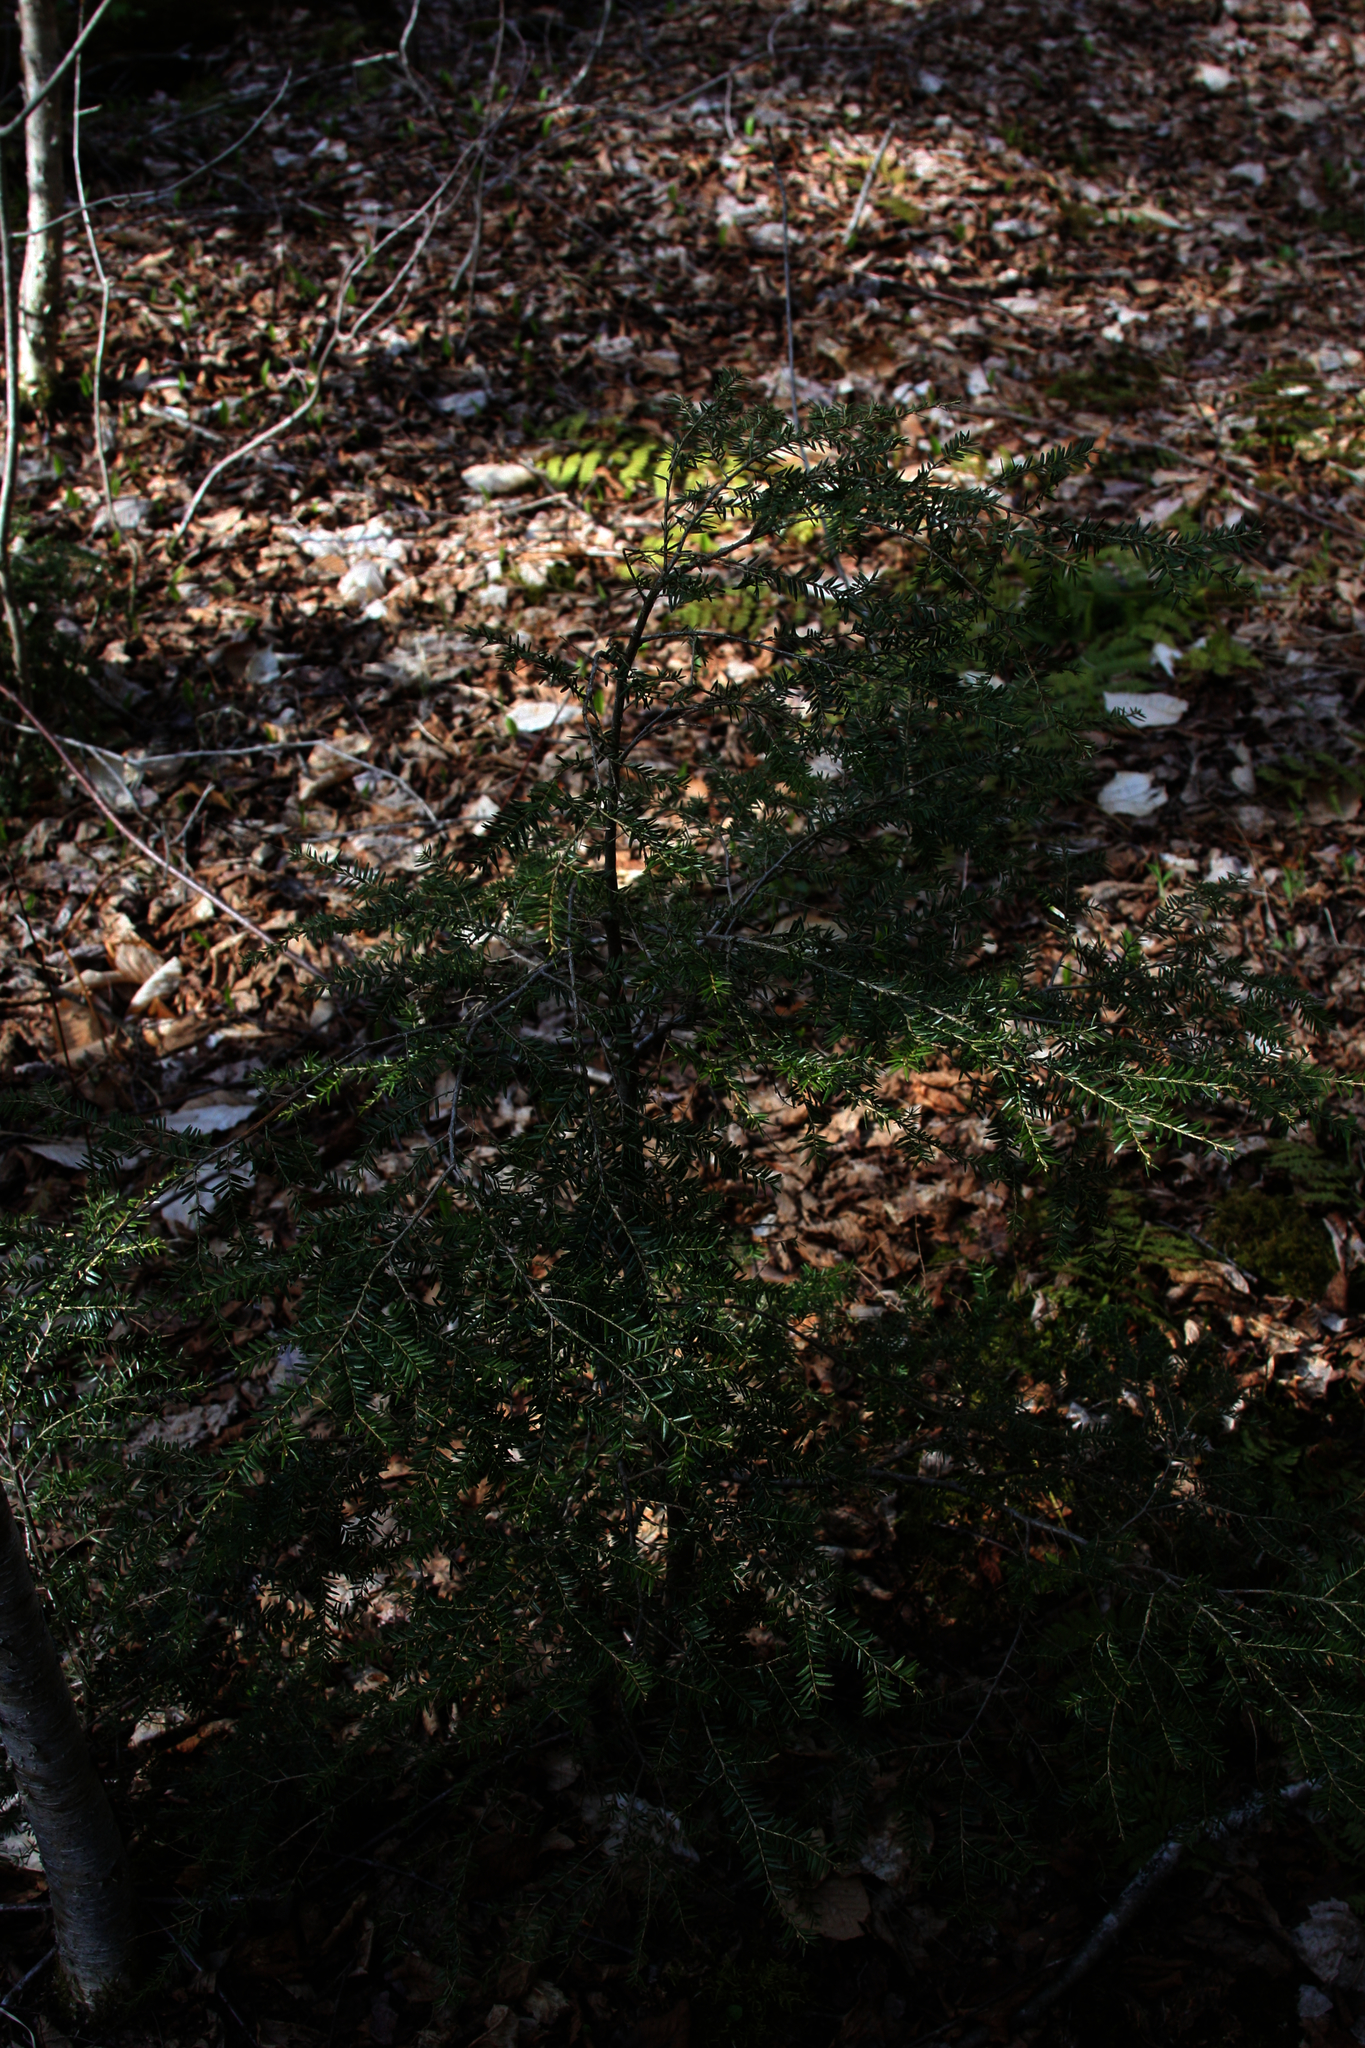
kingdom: Plantae
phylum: Tracheophyta
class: Pinopsida
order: Pinales
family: Pinaceae
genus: Tsuga
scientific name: Tsuga canadensis
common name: Eastern hemlock
